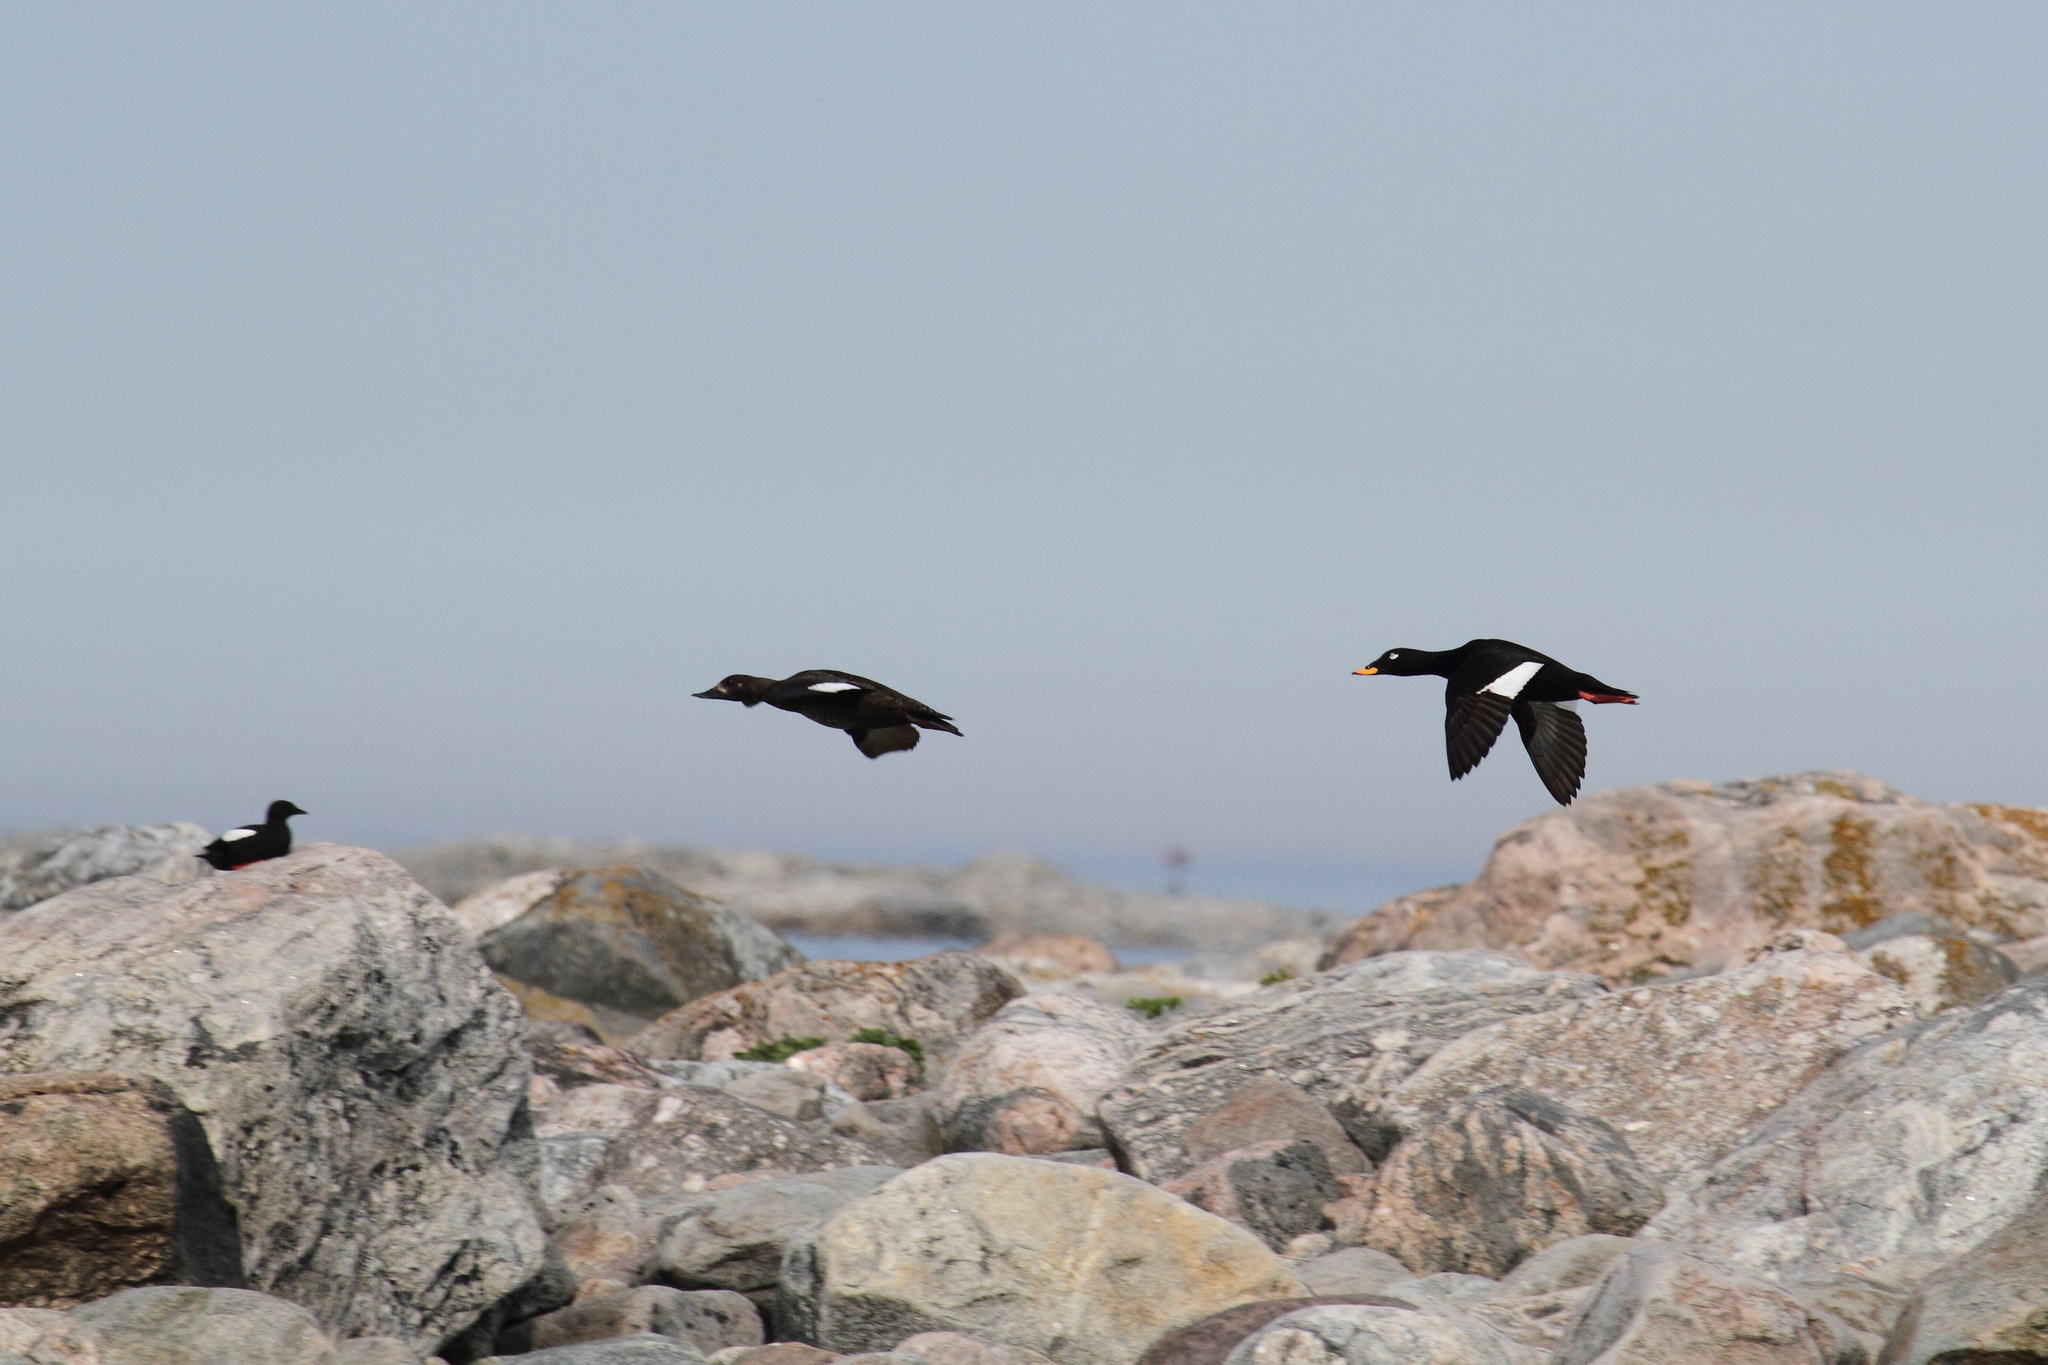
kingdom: Animalia
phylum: Chordata
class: Aves
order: Anseriformes
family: Anatidae
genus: Melanitta
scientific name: Melanitta fusca
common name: Velvet scoter
